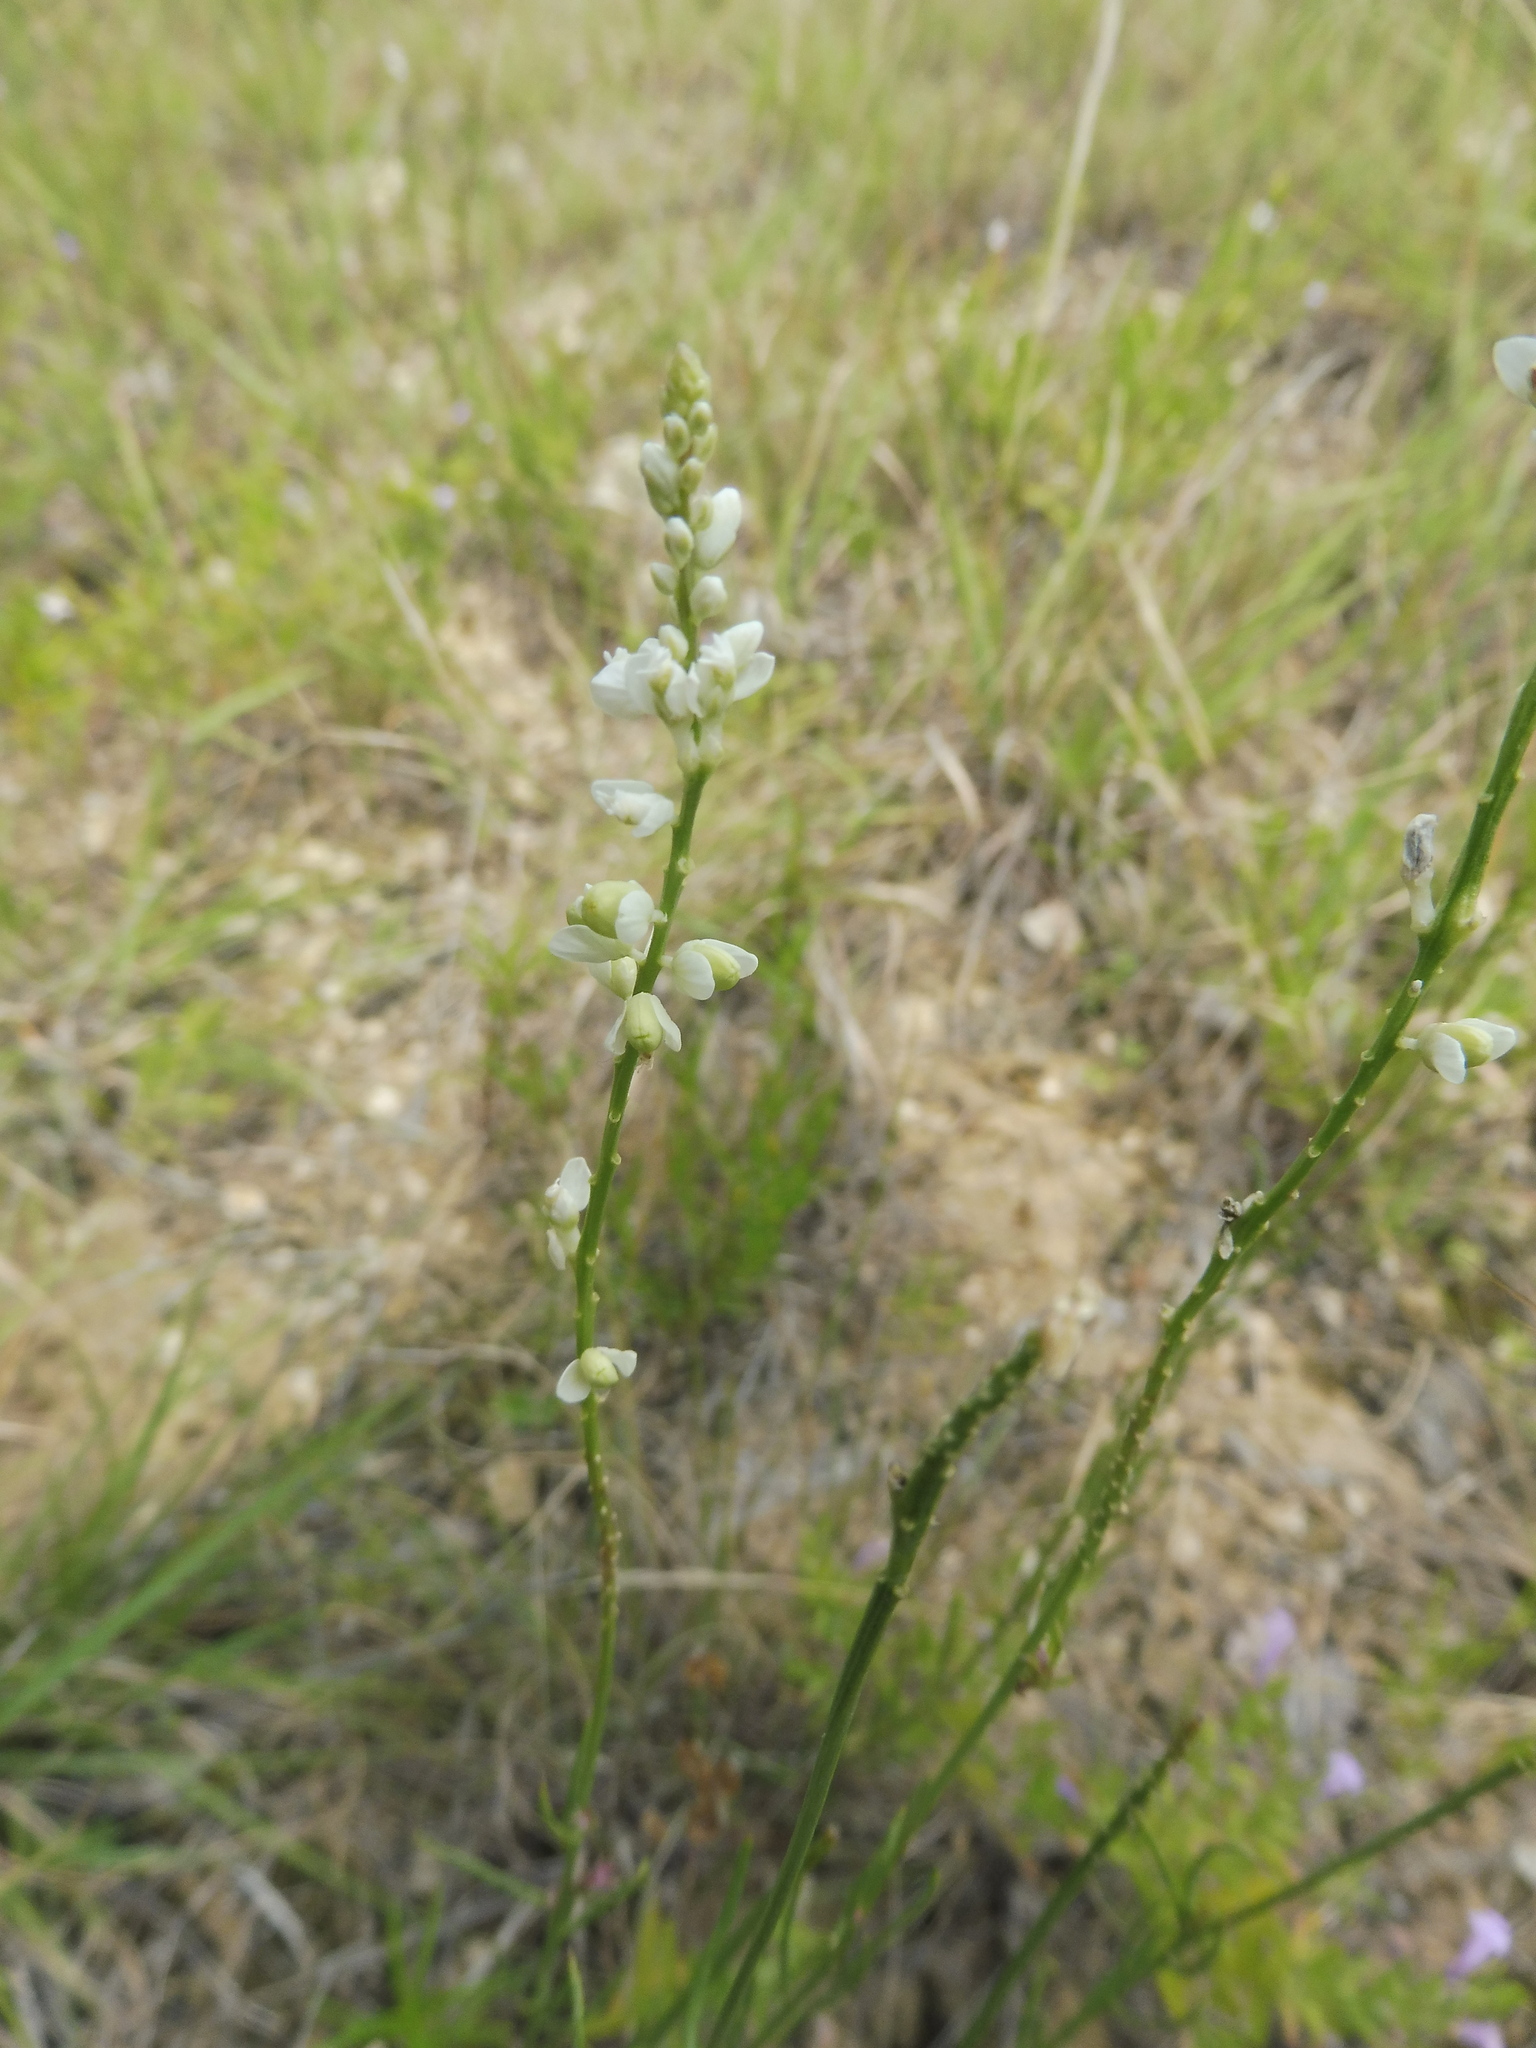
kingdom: Plantae
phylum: Tracheophyta
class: Magnoliopsida
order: Fabales
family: Polygalaceae
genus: Polygala
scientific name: Polygala alba
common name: White milkwort
